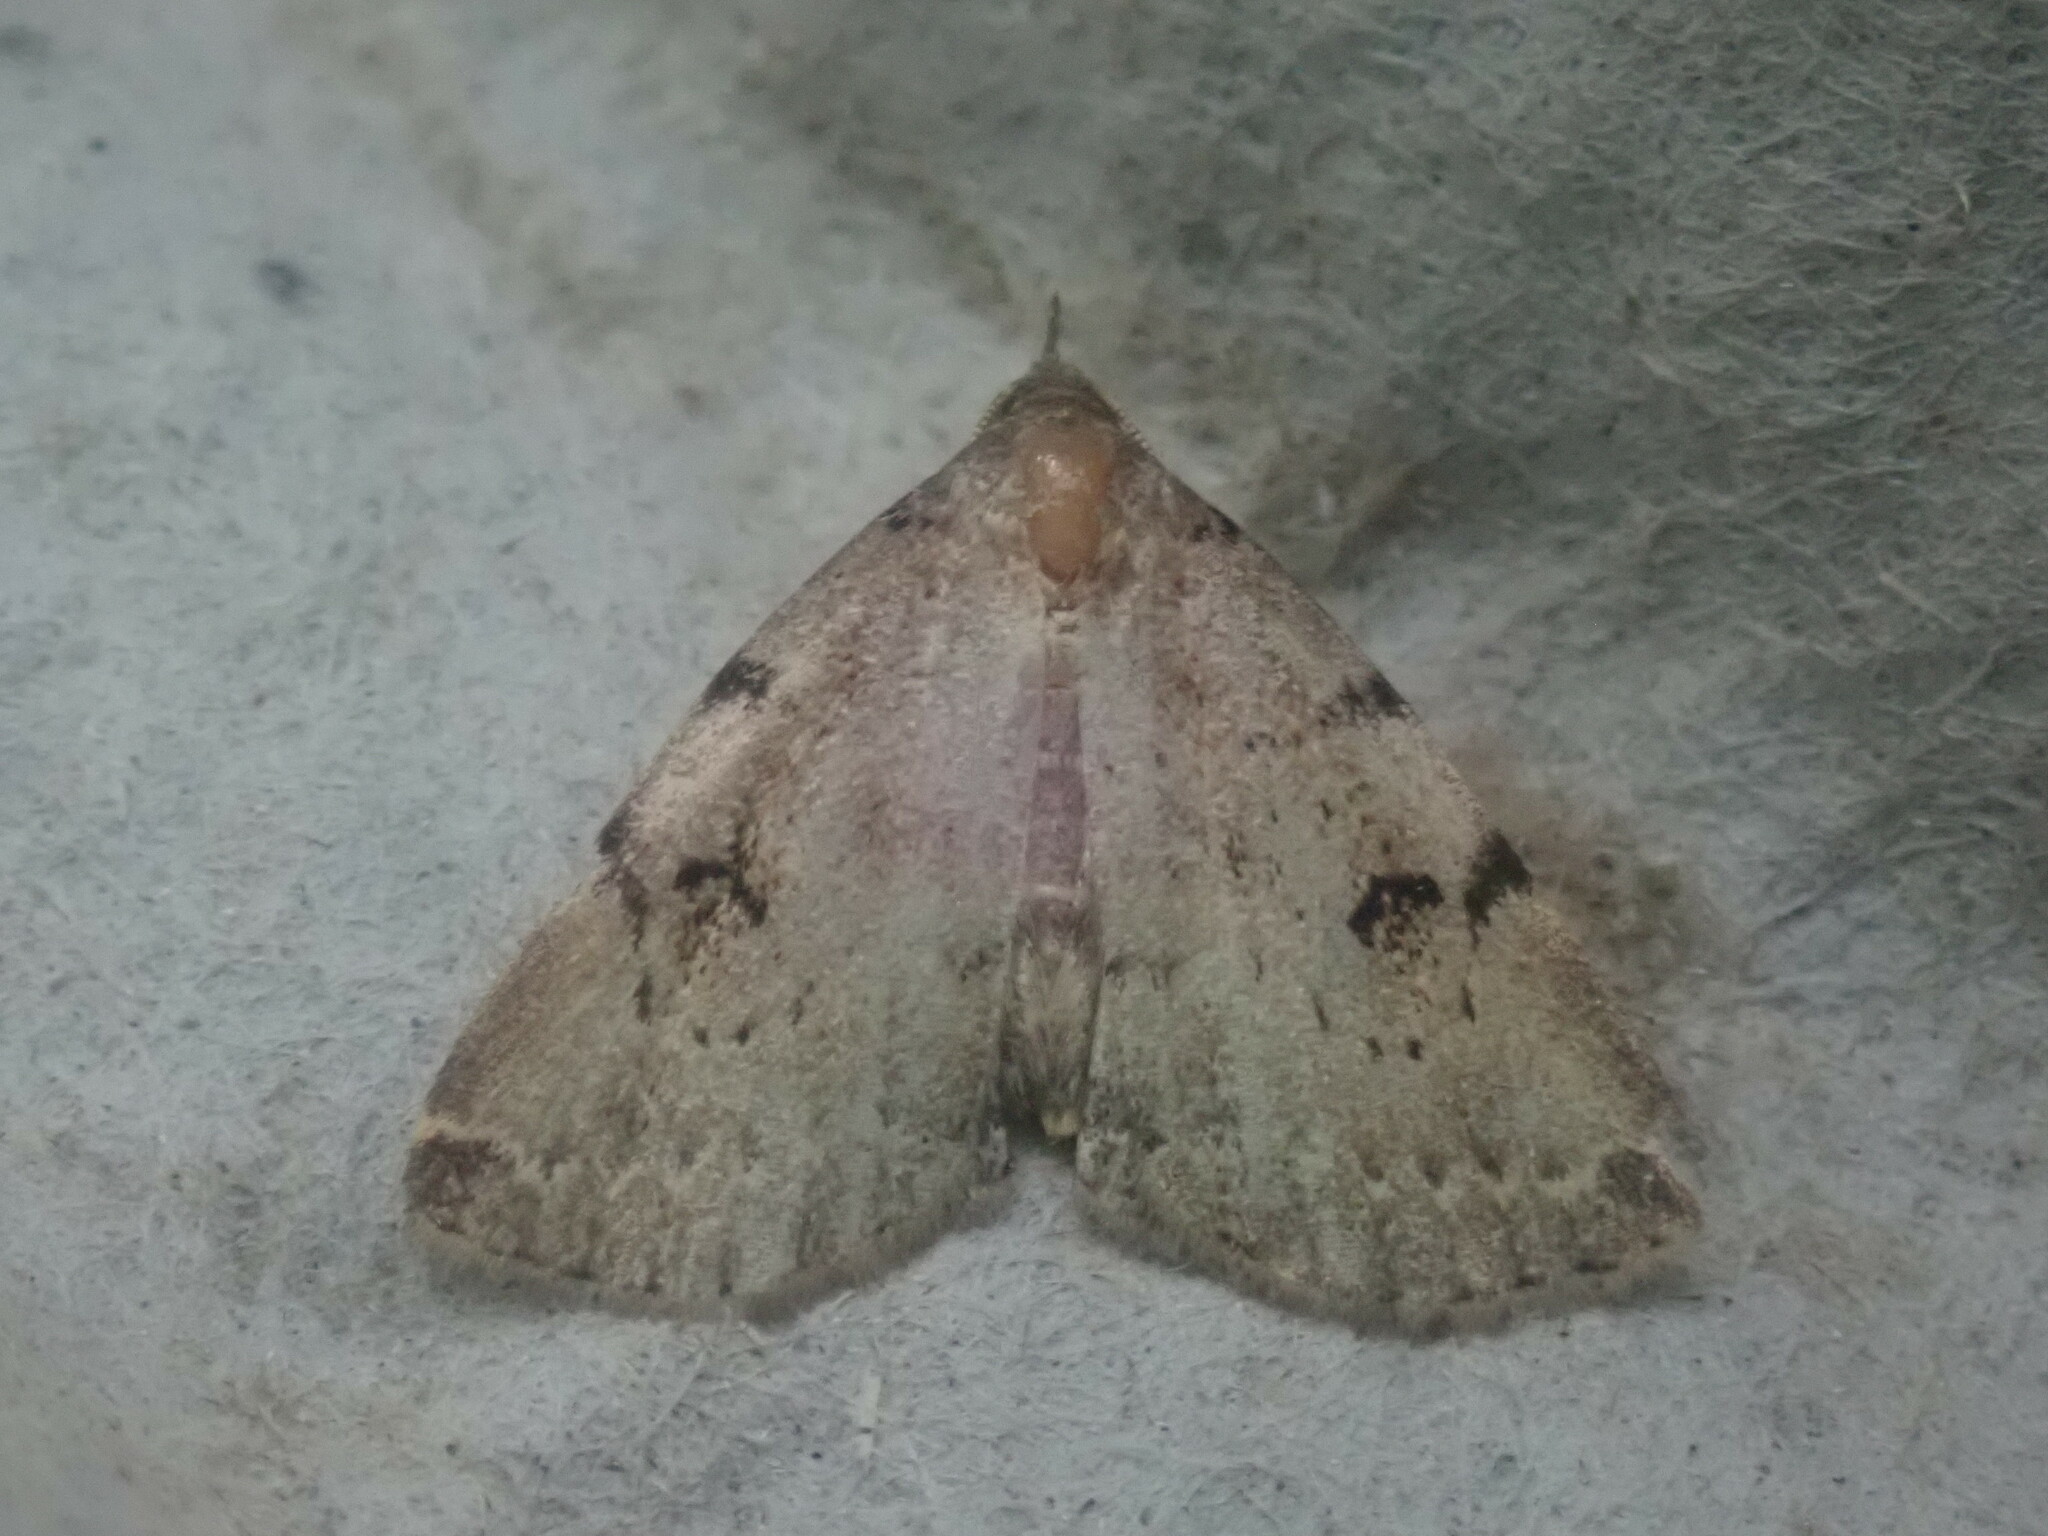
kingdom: Animalia
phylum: Arthropoda
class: Insecta
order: Lepidoptera
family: Erebidae
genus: Zanclognatha
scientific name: Zanclognatha lituralis
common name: Lettered fan-foot
